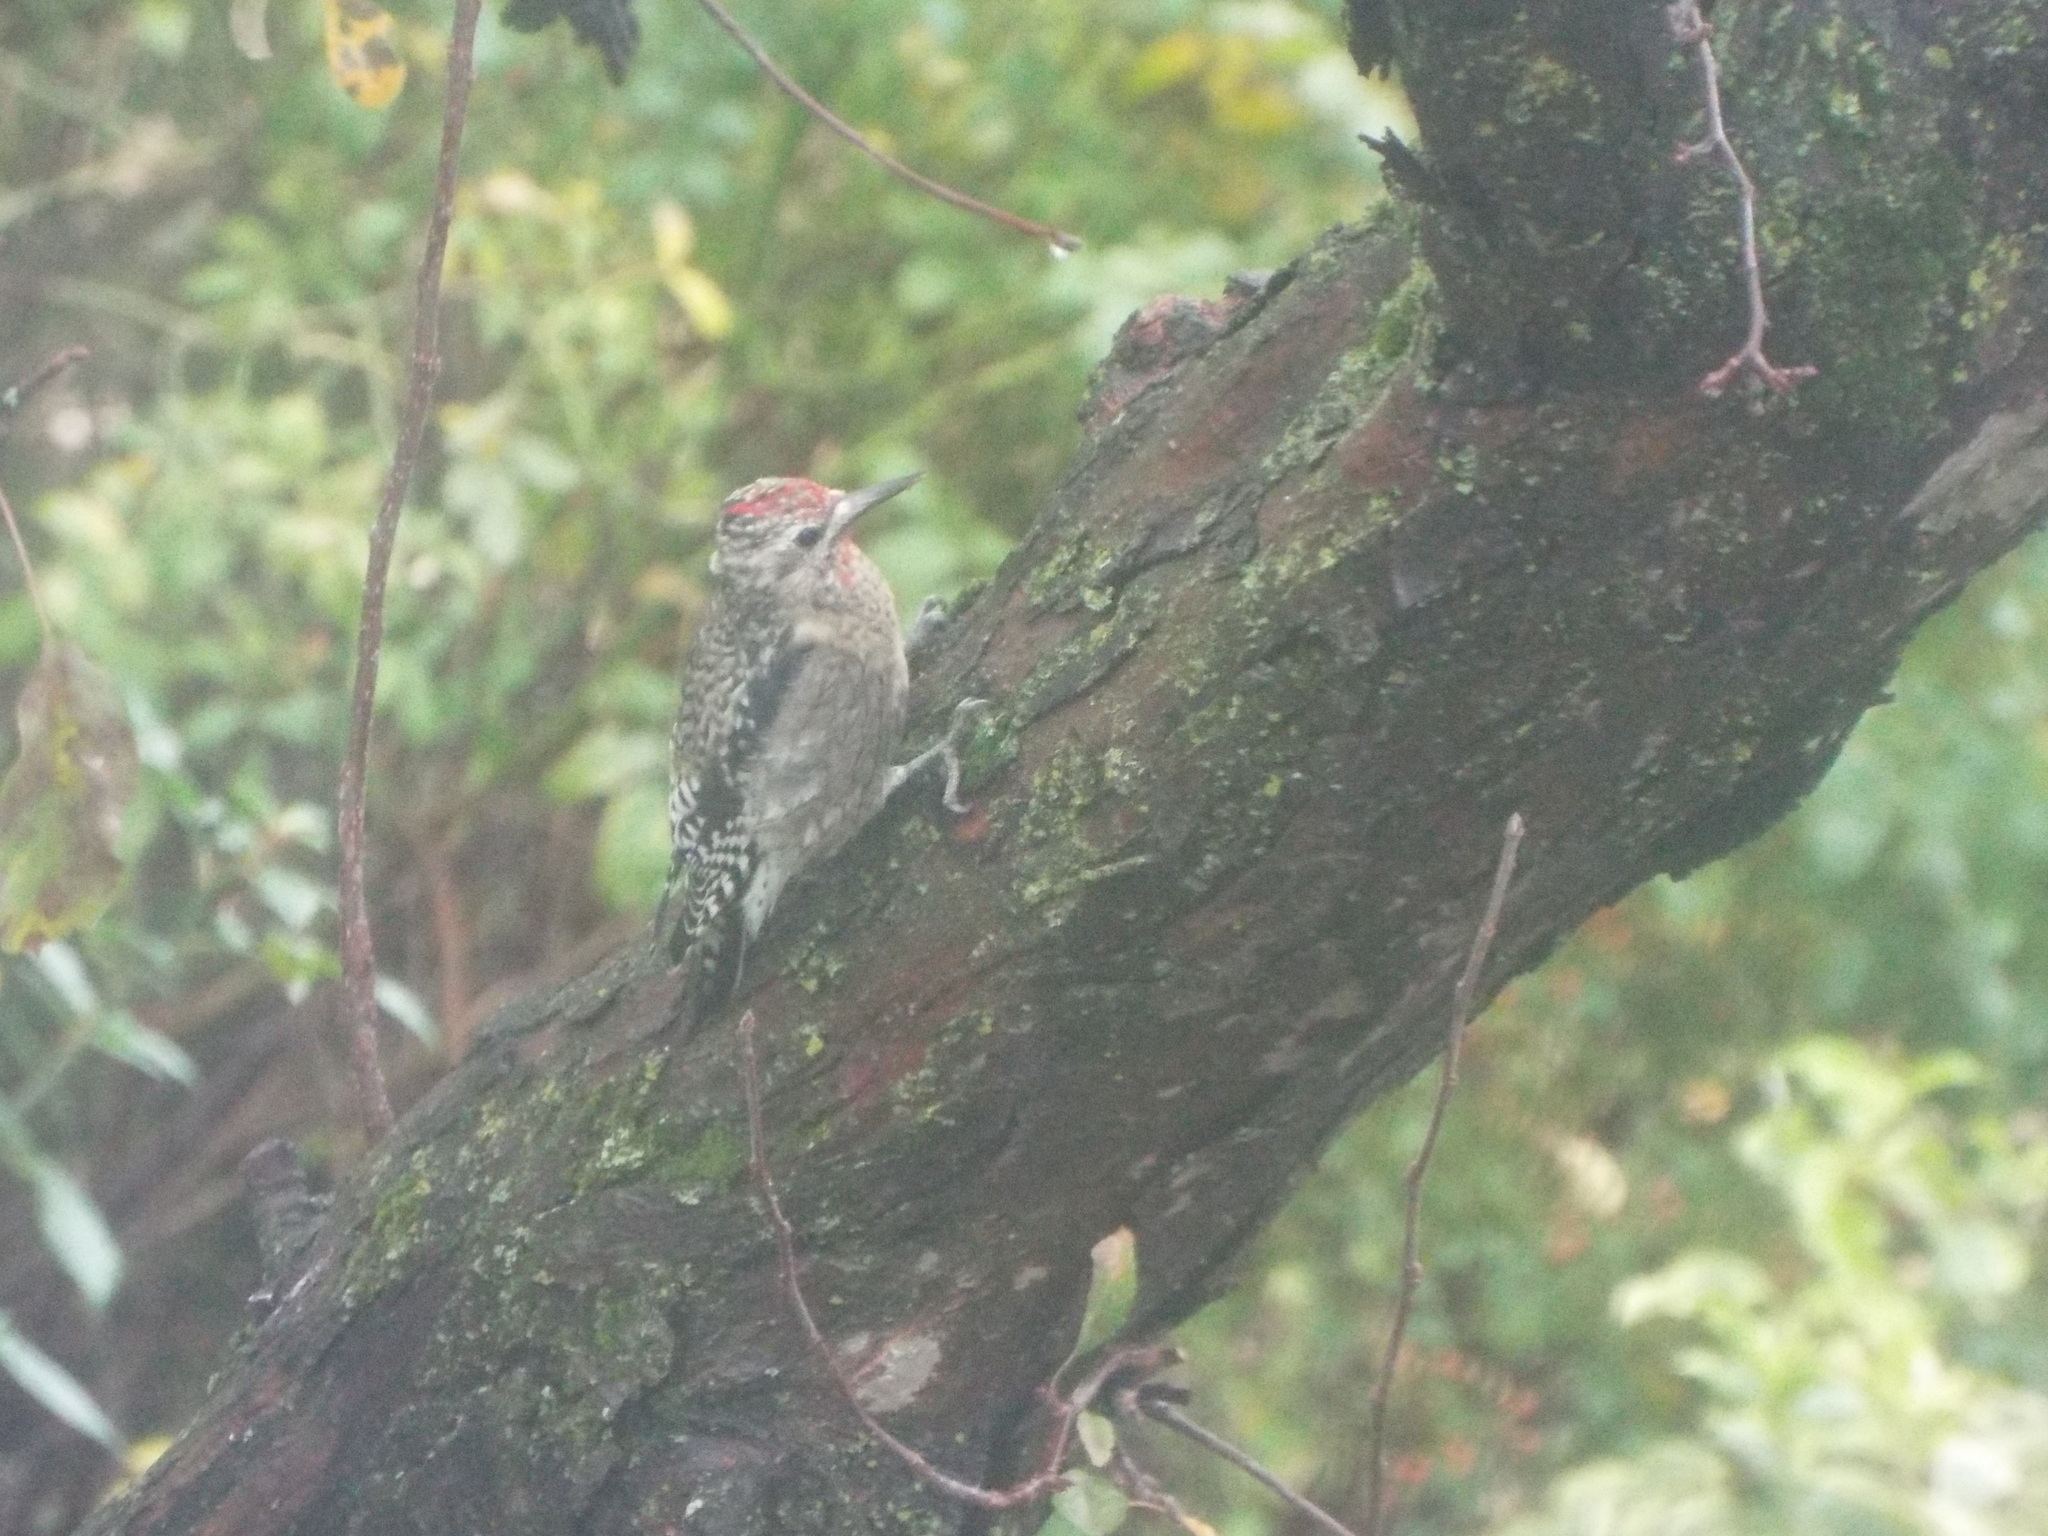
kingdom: Animalia
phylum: Chordata
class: Aves
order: Piciformes
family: Picidae
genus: Sphyrapicus
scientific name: Sphyrapicus varius
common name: Yellow-bellied sapsucker
